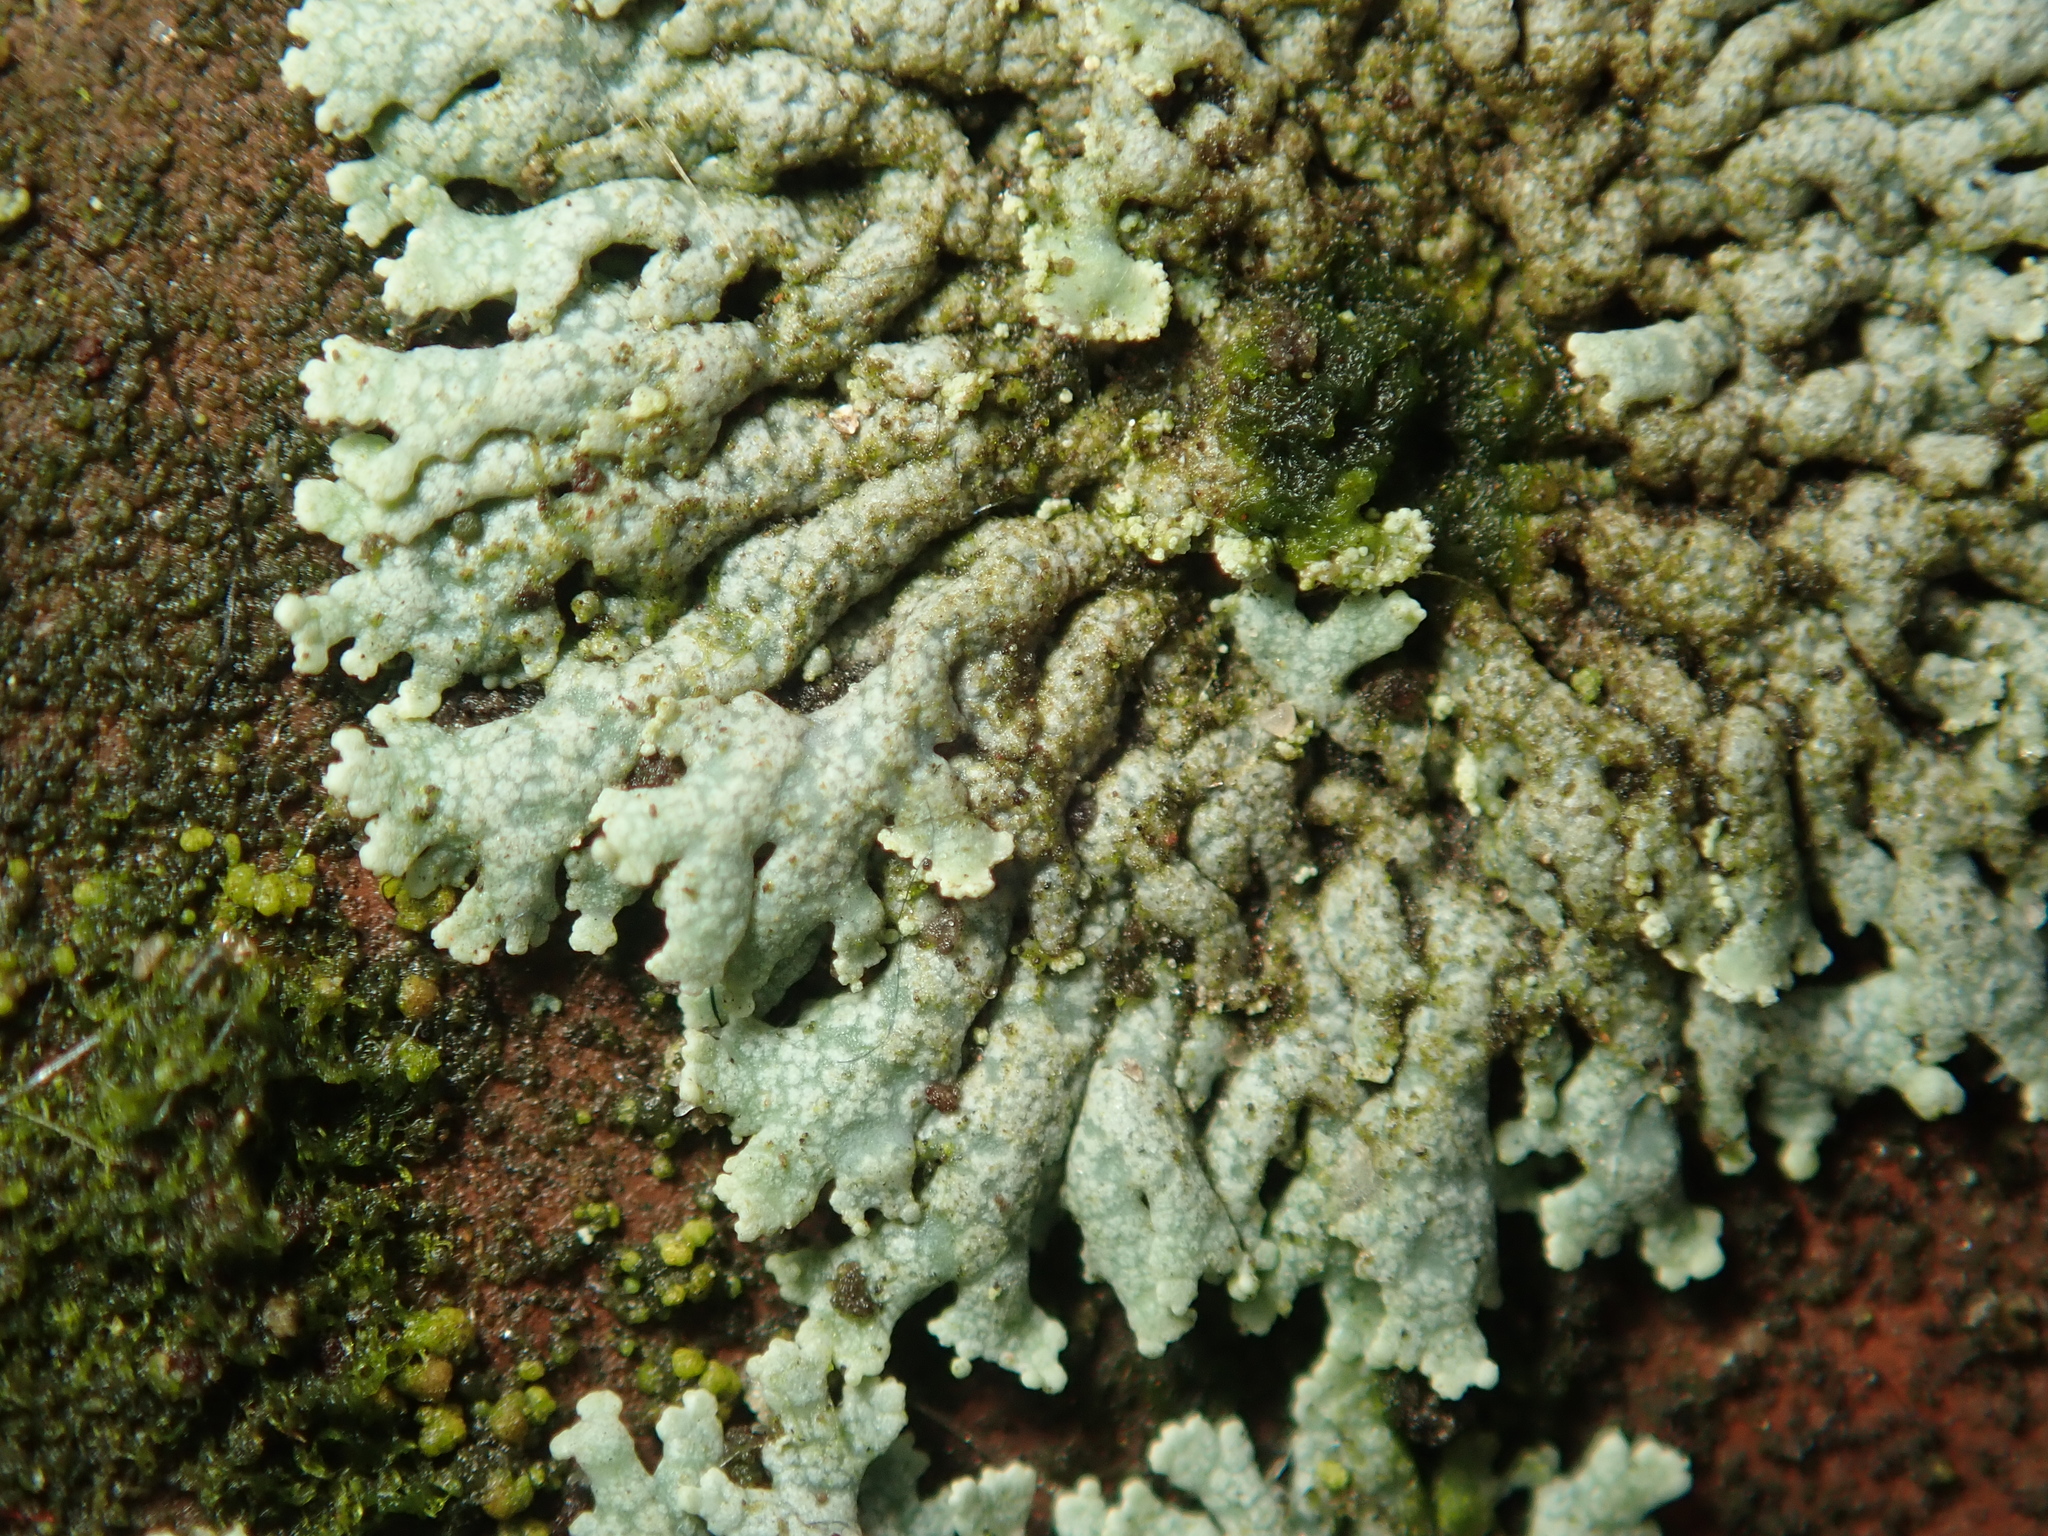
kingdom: Fungi
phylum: Ascomycota
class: Lecanoromycetes
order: Caliciales
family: Physciaceae
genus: Physcia
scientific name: Physcia caesia
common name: Blue-gray rosette lichen
